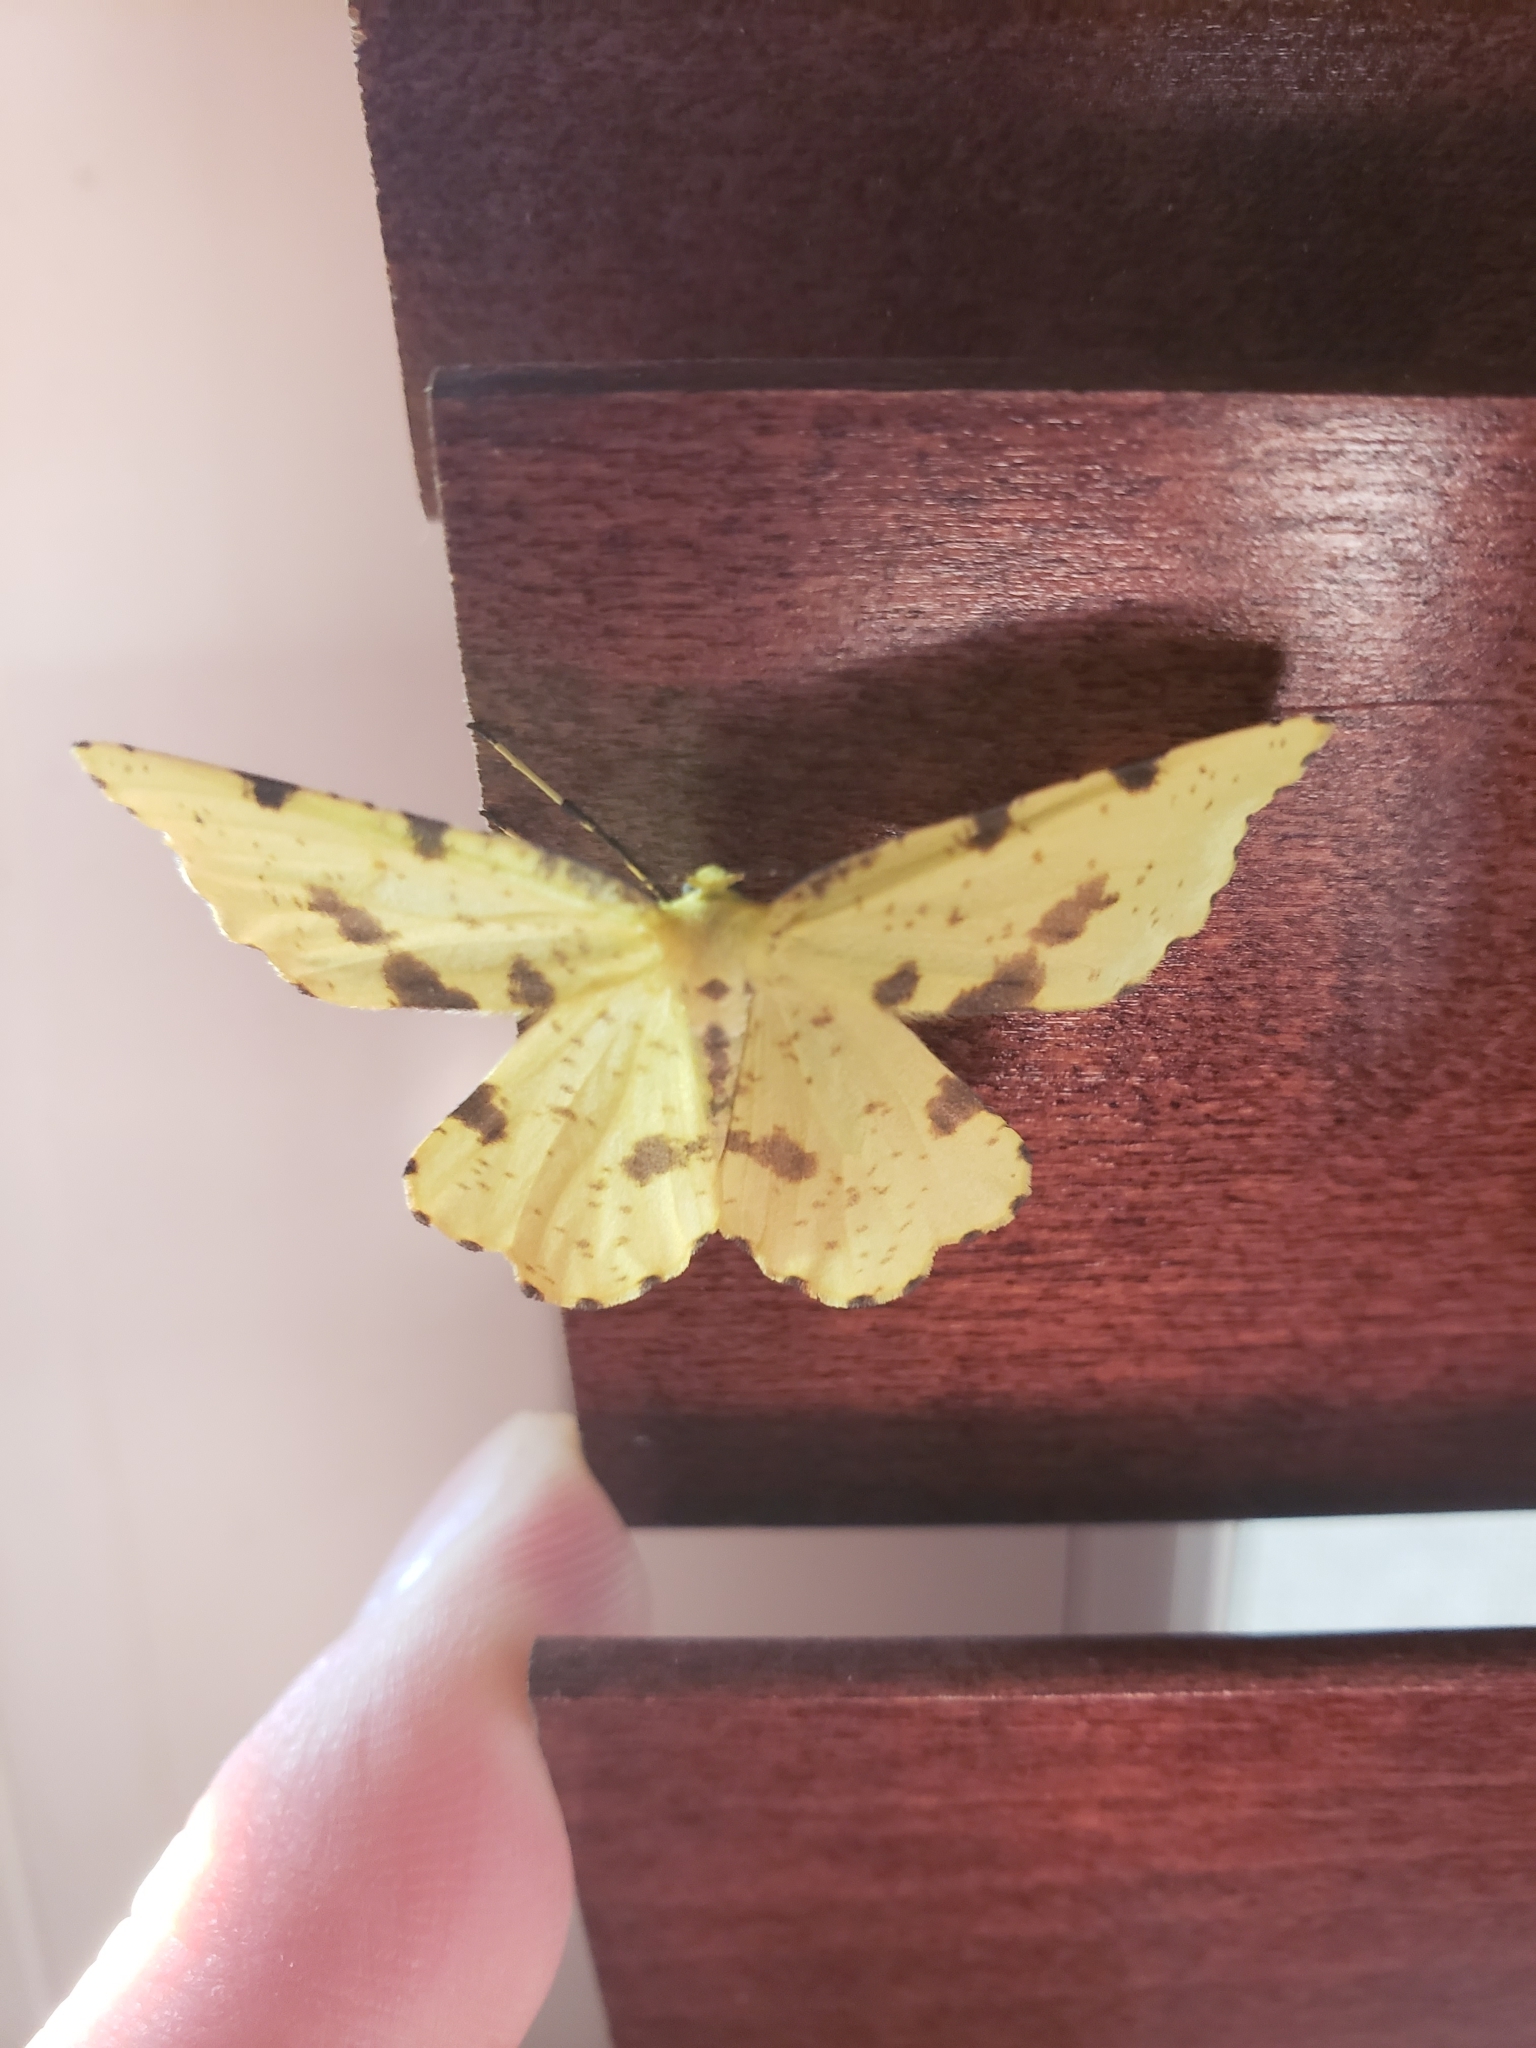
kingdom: Animalia
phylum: Arthropoda
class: Insecta
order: Lepidoptera
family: Geometridae
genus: Xanthotype
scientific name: Xanthotype
